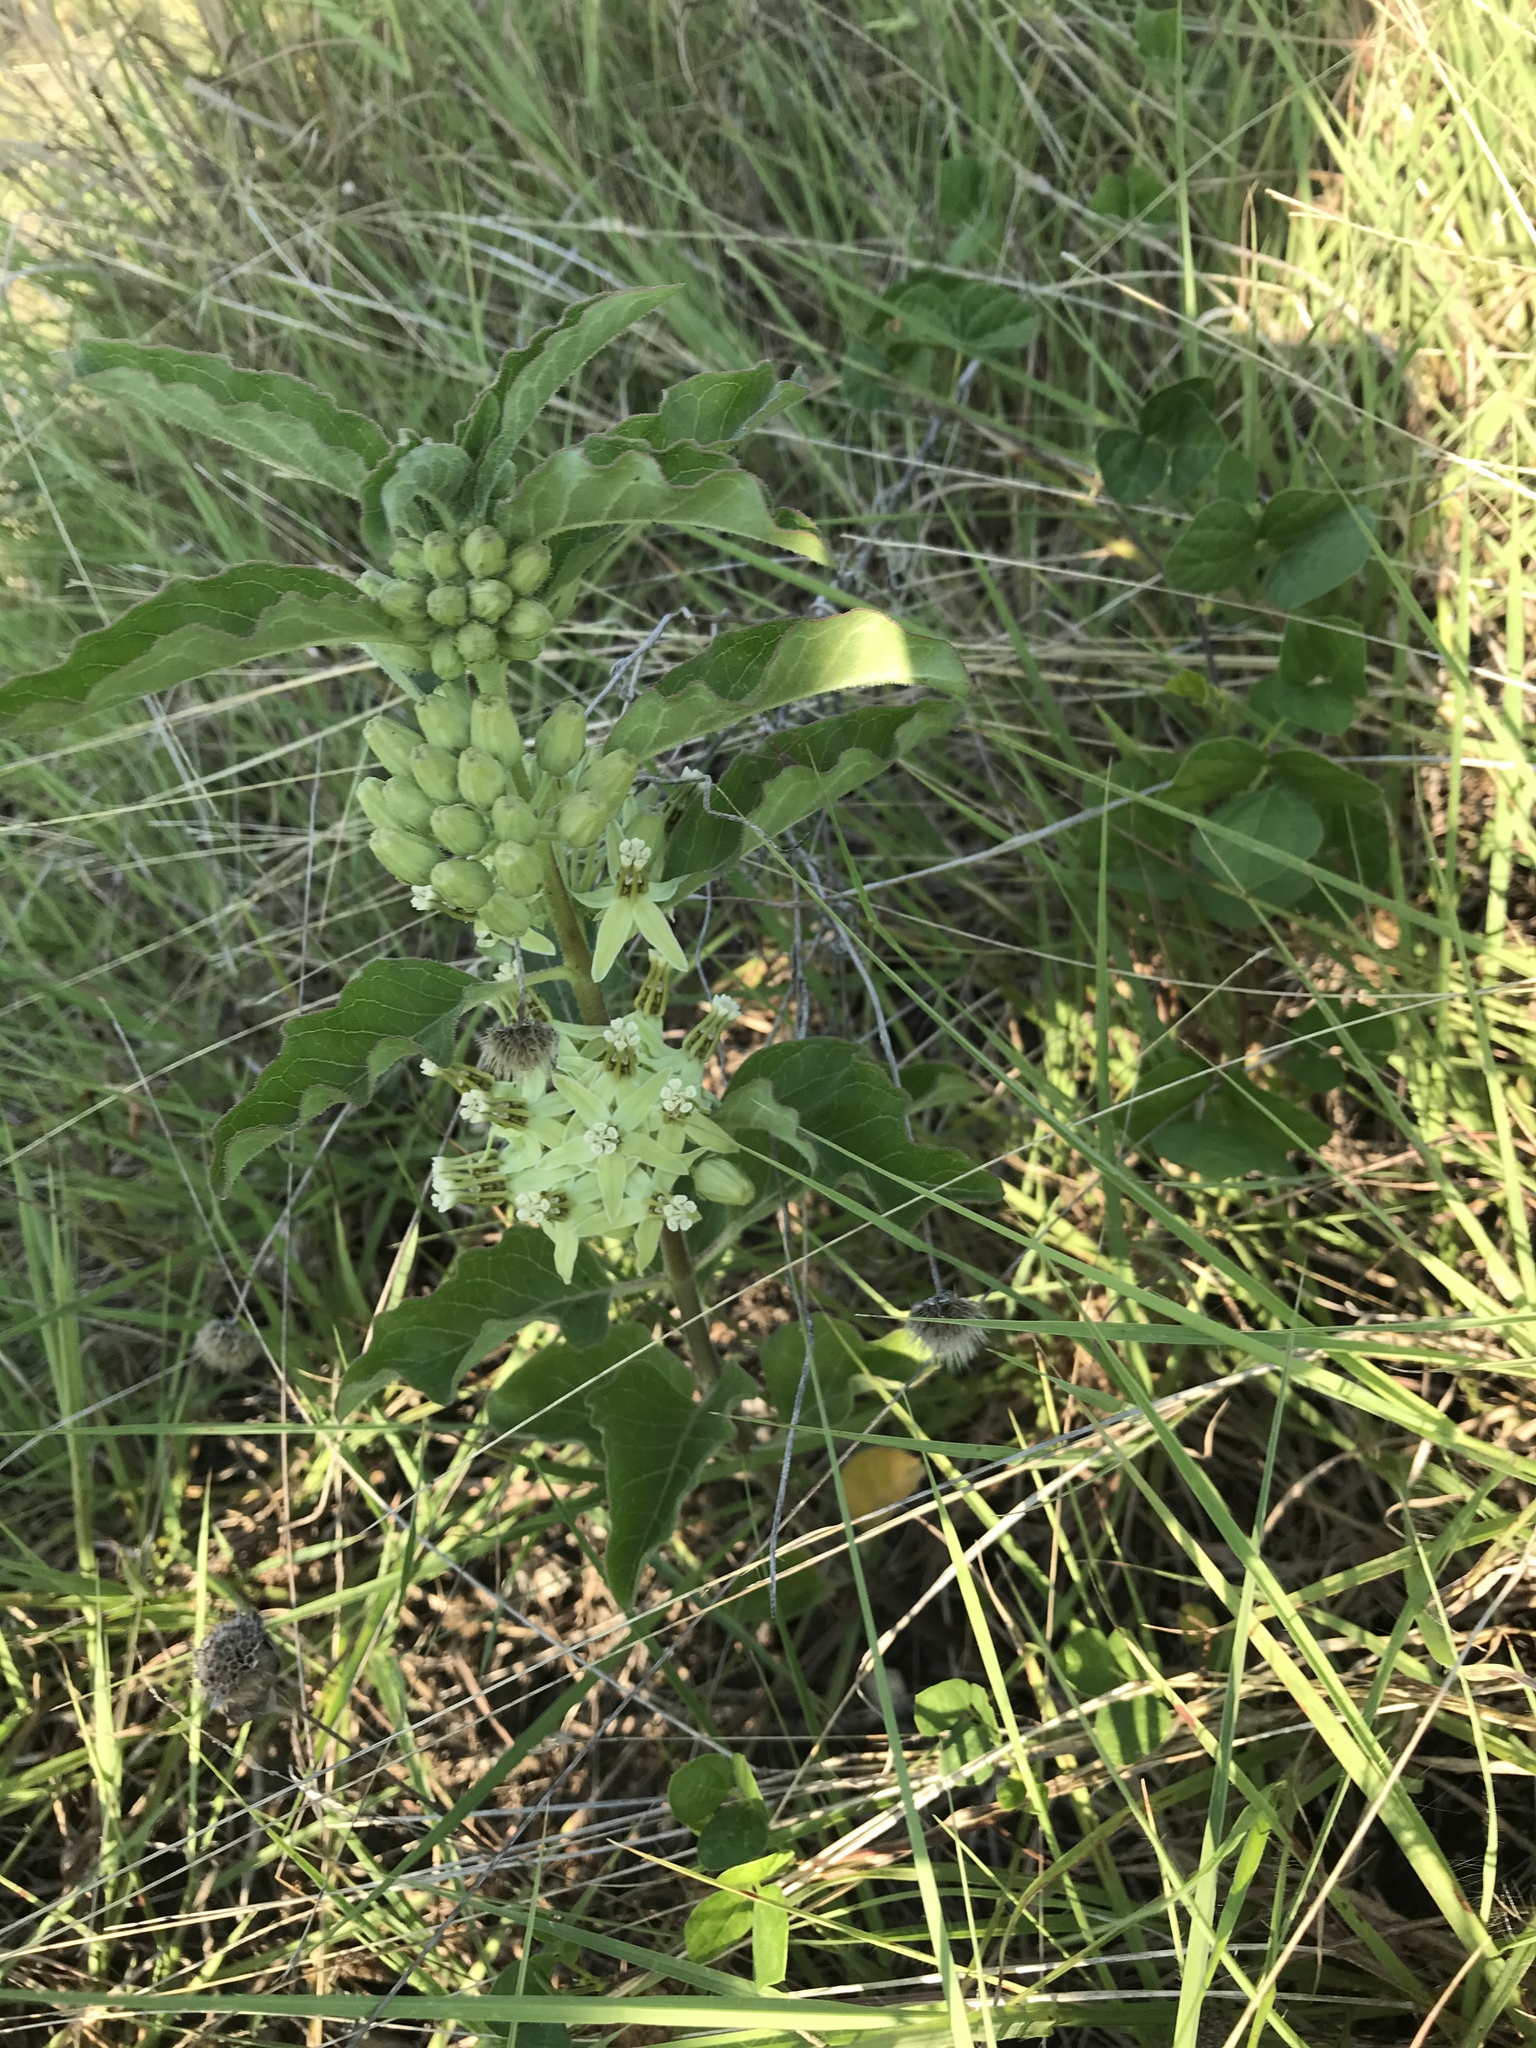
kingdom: Plantae
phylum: Tracheophyta
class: Magnoliopsida
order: Gentianales
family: Apocynaceae
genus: Asclepias
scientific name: Asclepias oenotheroides
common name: Zizotes milkweed
